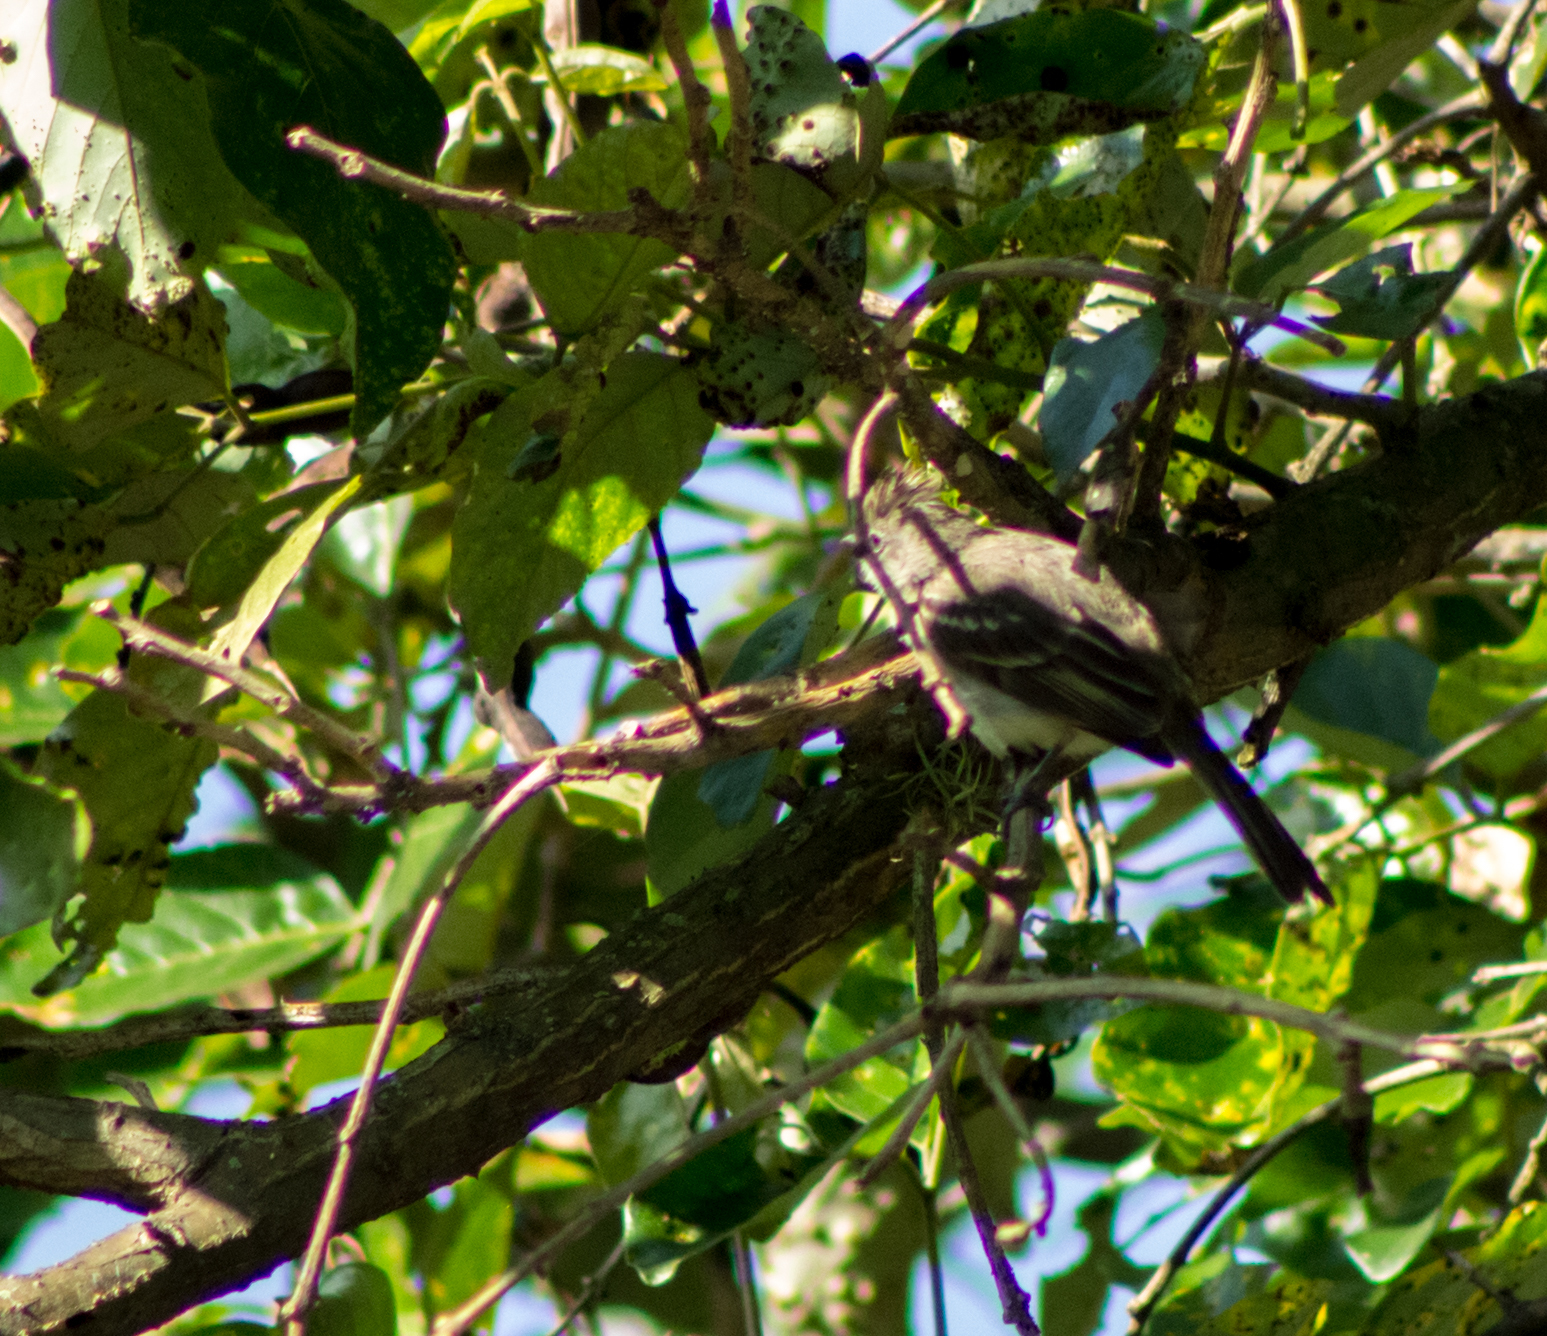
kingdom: Animalia
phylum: Chordata
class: Aves
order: Passeriformes
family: Tyrannidae
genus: Elaenia
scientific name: Elaenia flavogaster
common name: Yellow-bellied elaenia
